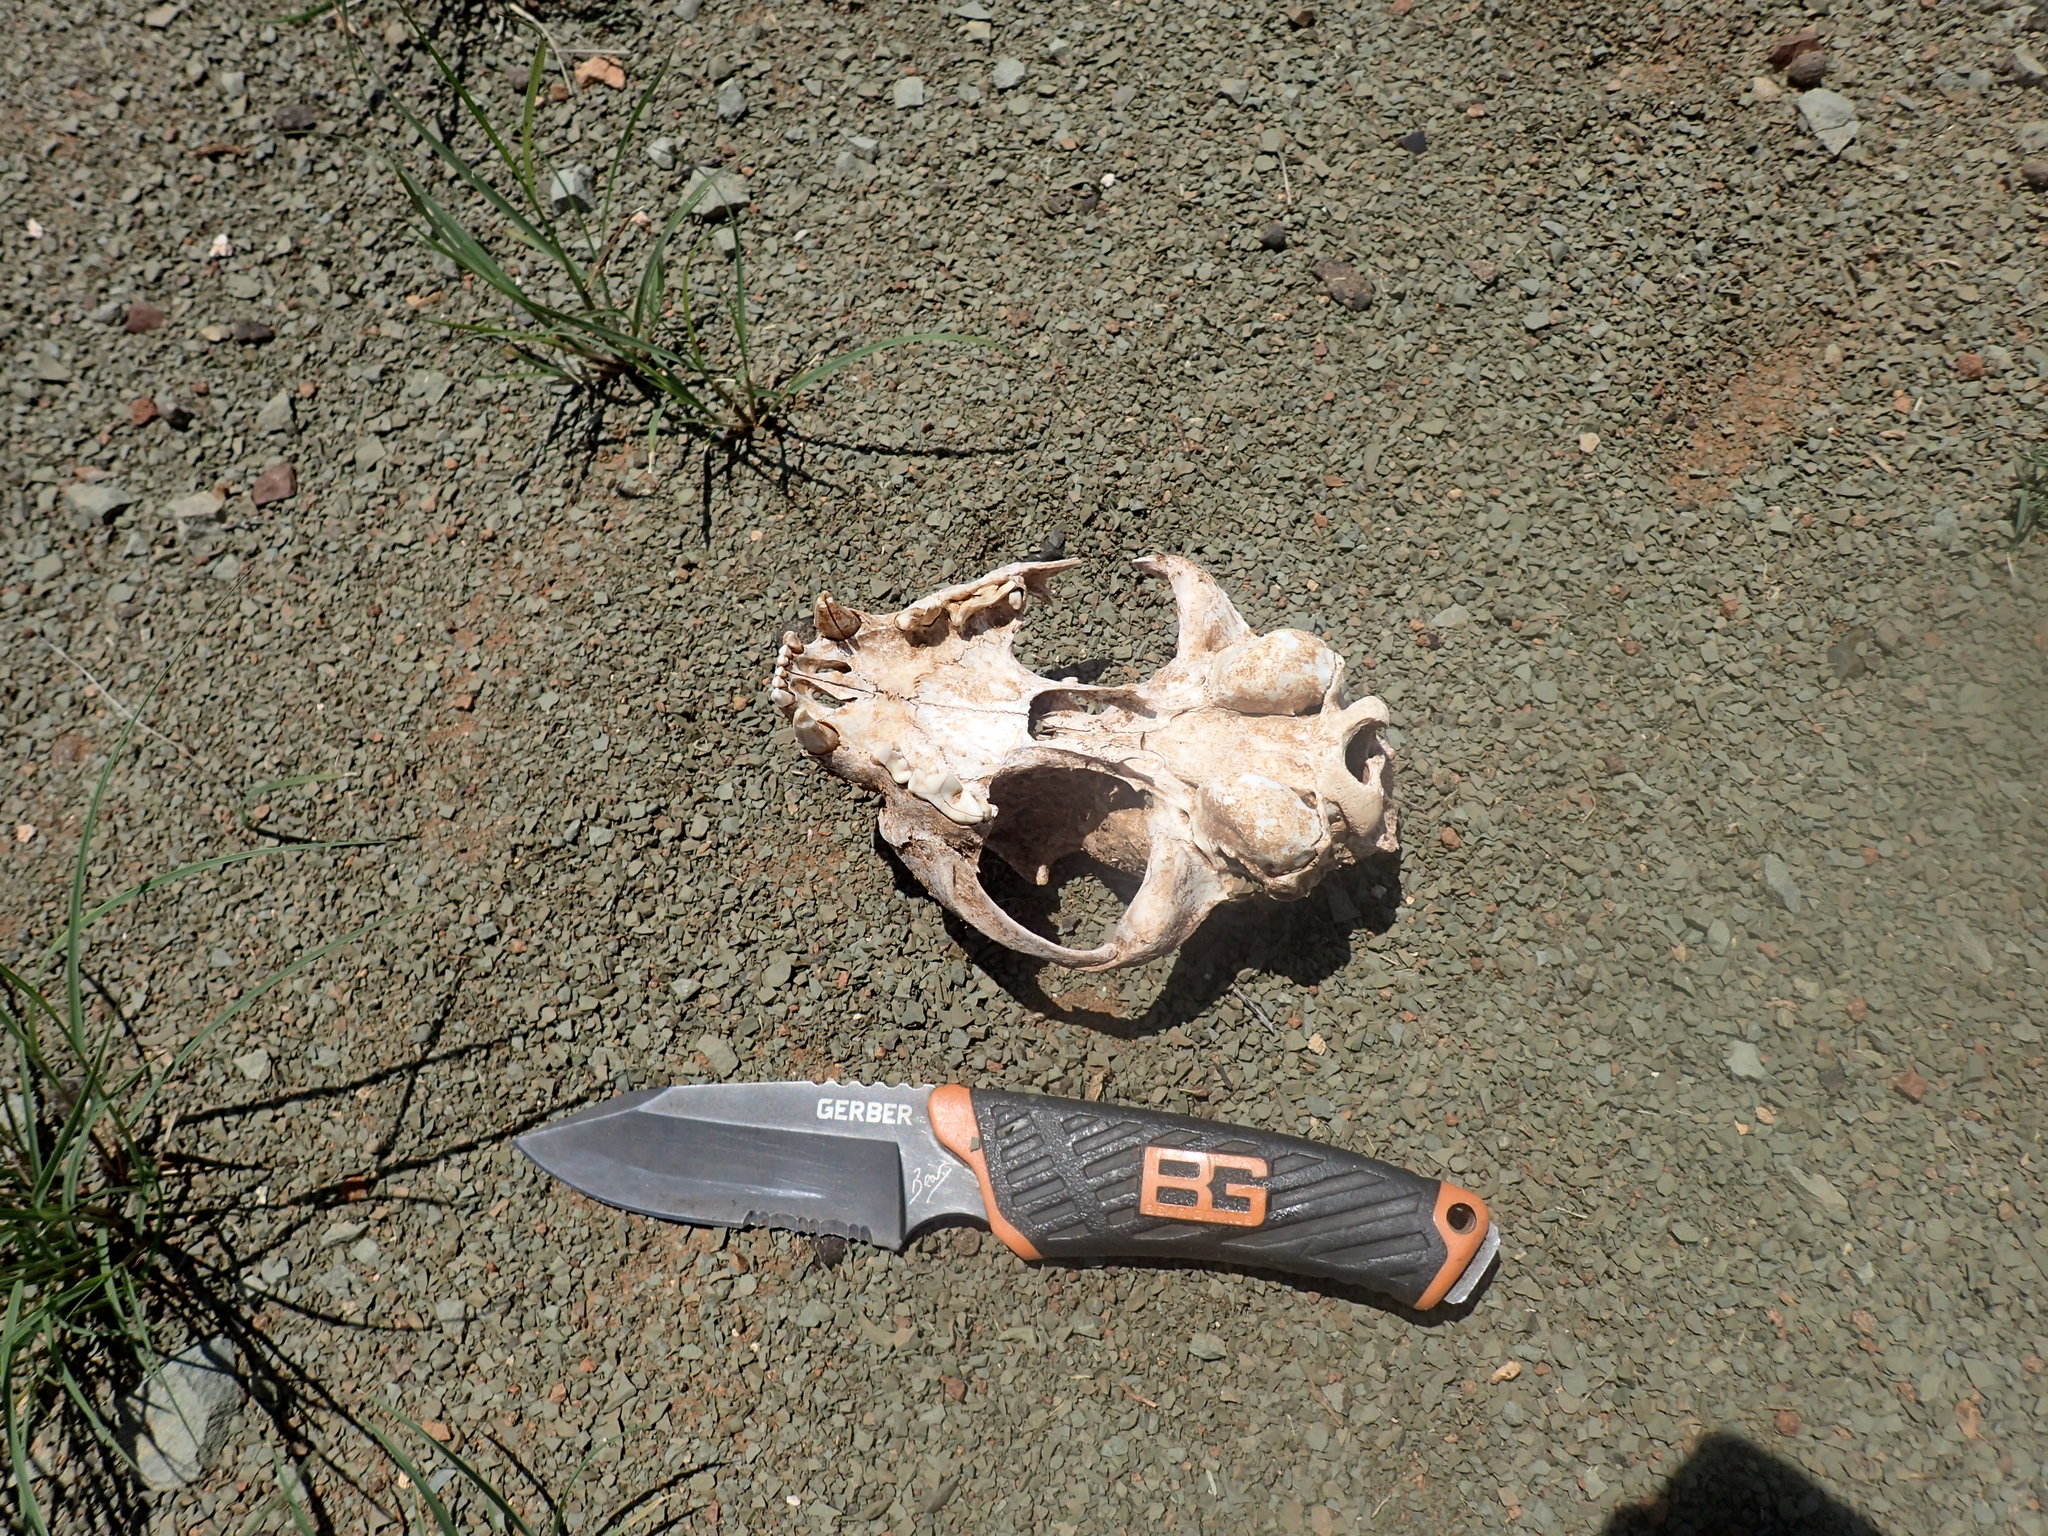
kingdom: Animalia
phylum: Chordata
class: Mammalia
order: Carnivora
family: Felidae
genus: Caracal
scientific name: Caracal caracal
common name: Caracal
